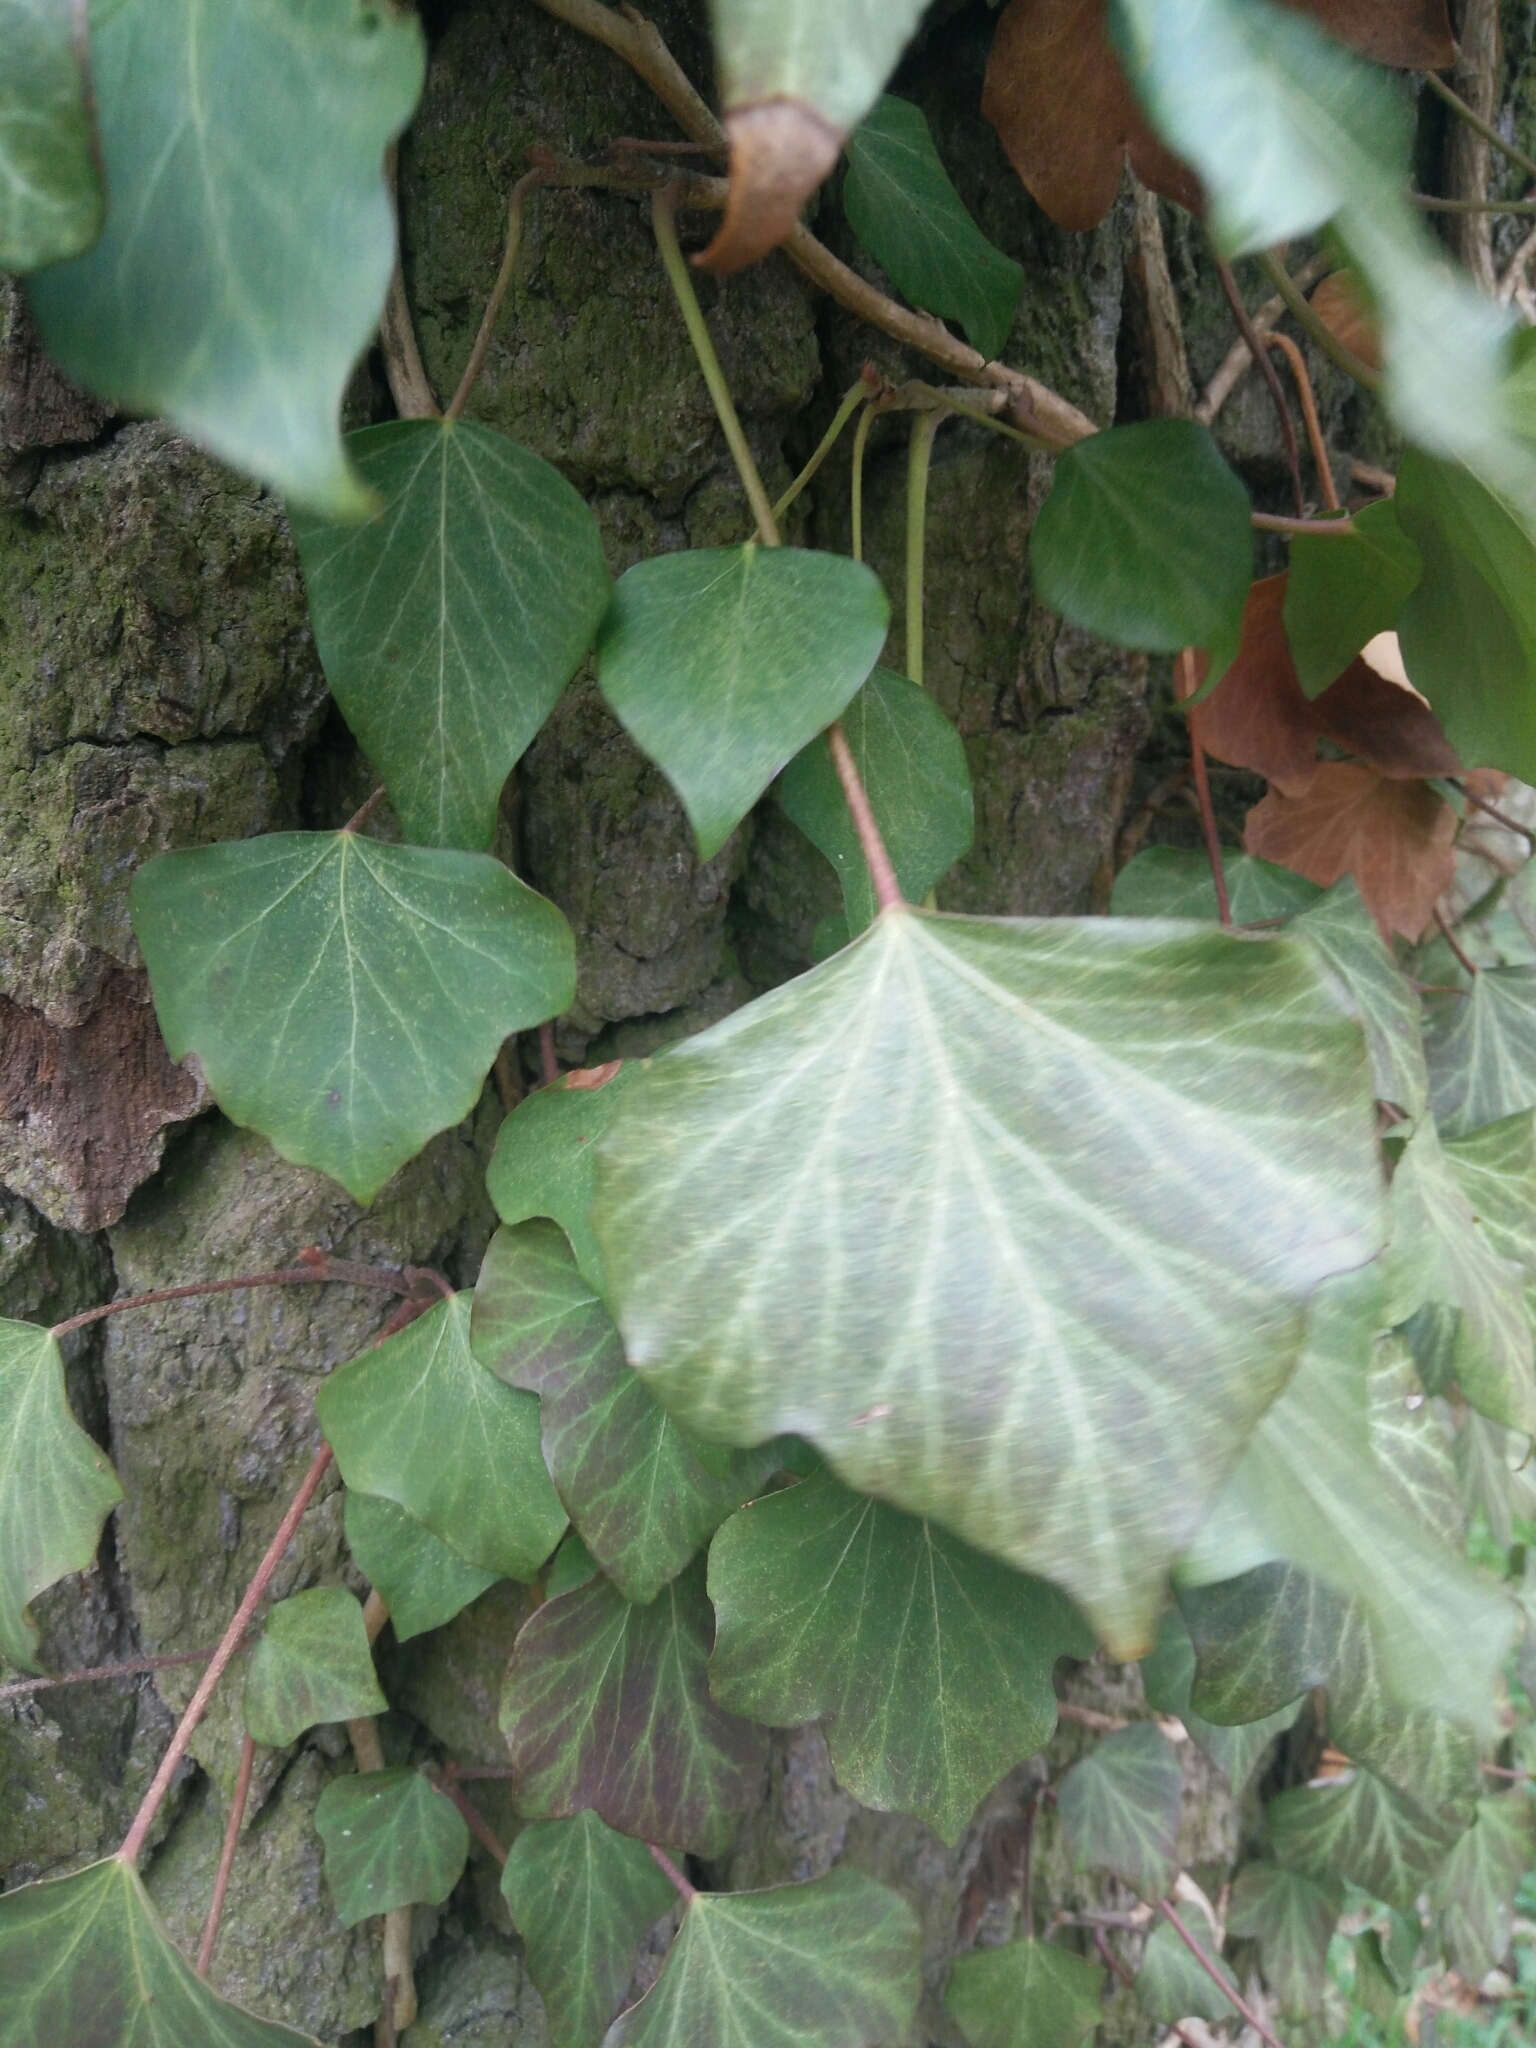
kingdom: Plantae
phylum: Tracheophyta
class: Magnoliopsida
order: Apiales
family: Araliaceae
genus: Hedera
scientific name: Hedera helix
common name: Ivy
